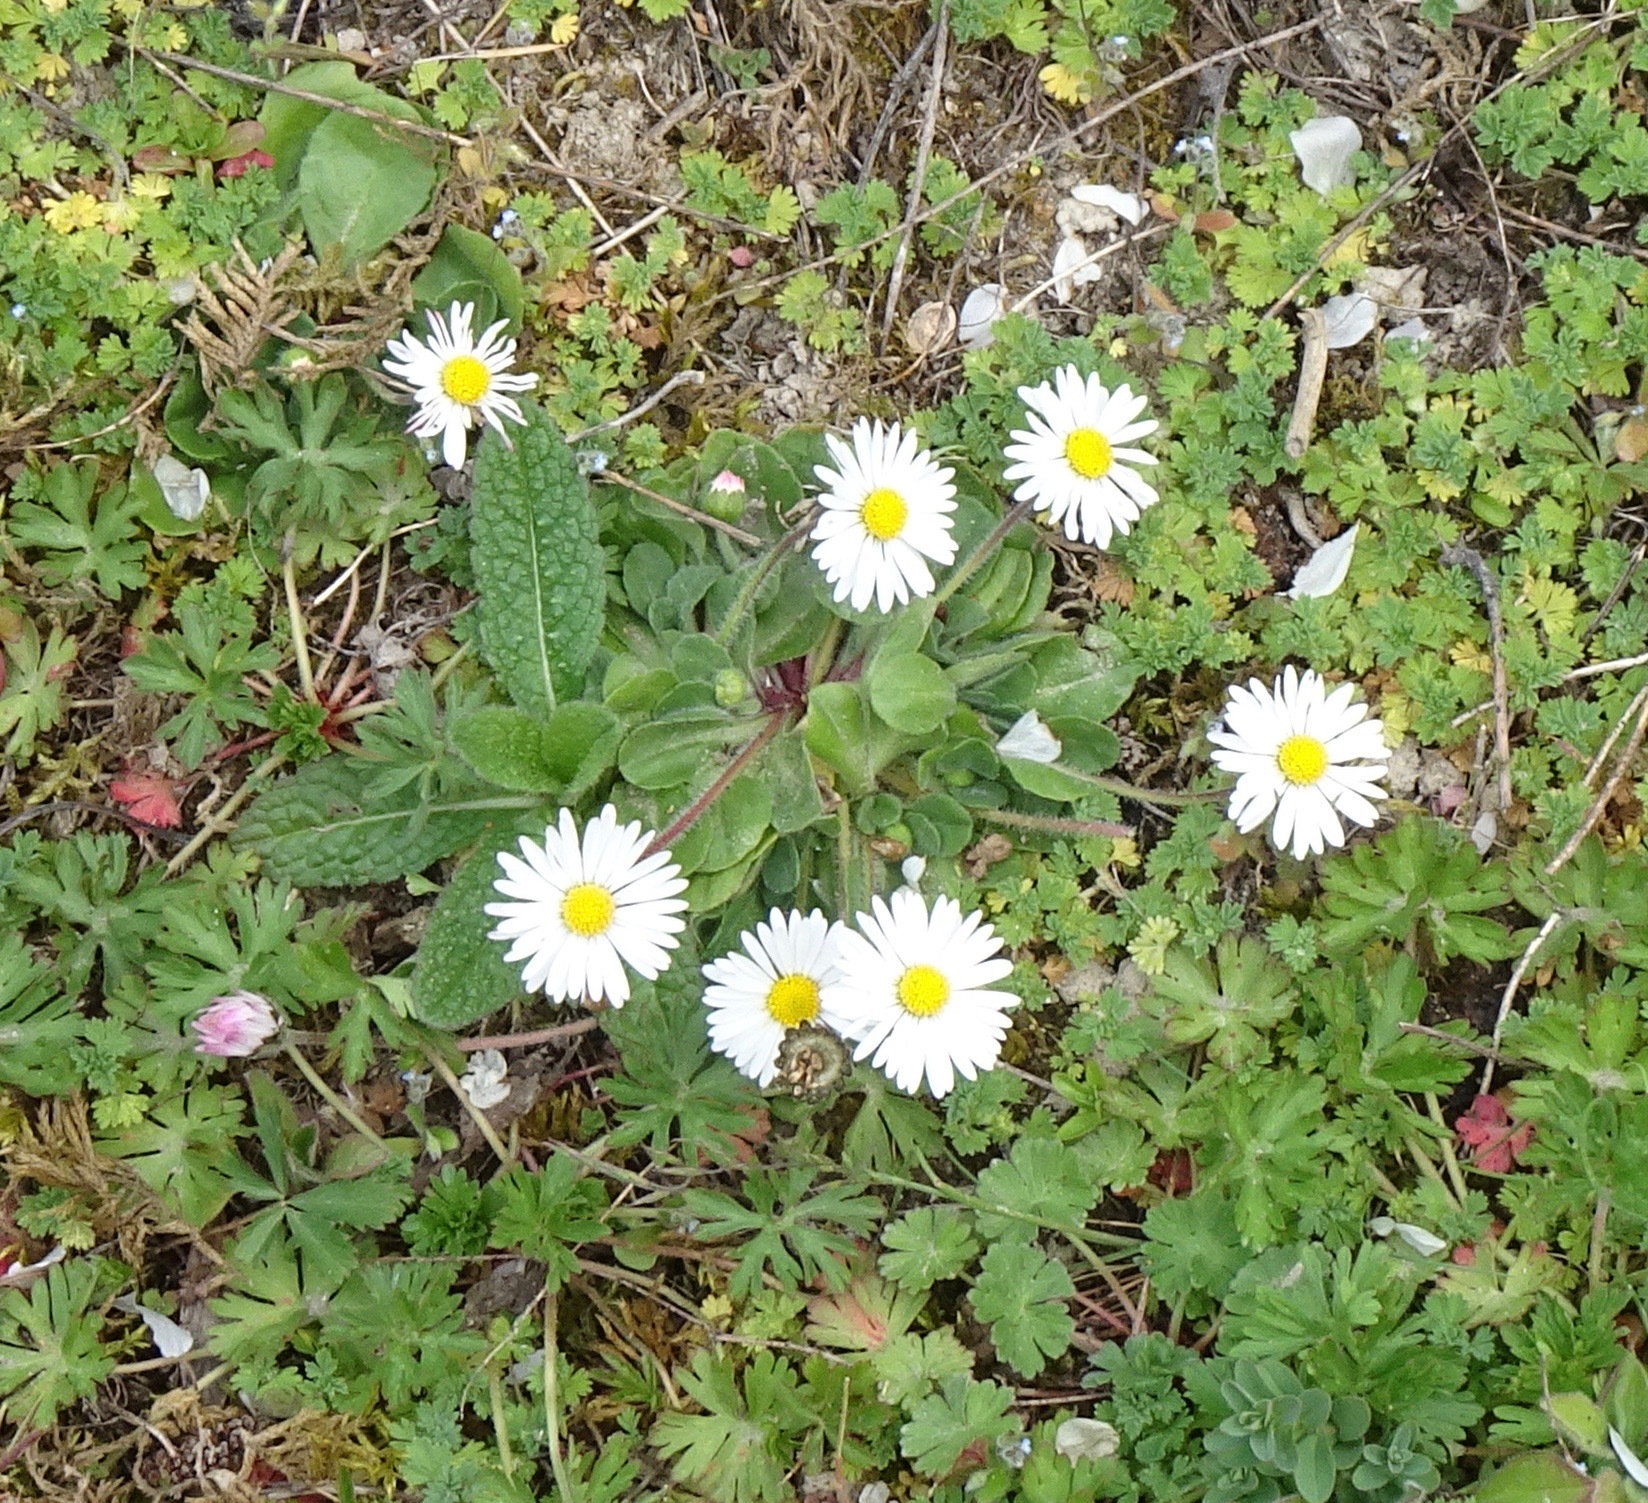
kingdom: Plantae
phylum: Tracheophyta
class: Magnoliopsida
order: Asterales
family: Asteraceae
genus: Bellis
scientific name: Bellis perennis
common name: Lawndaisy
